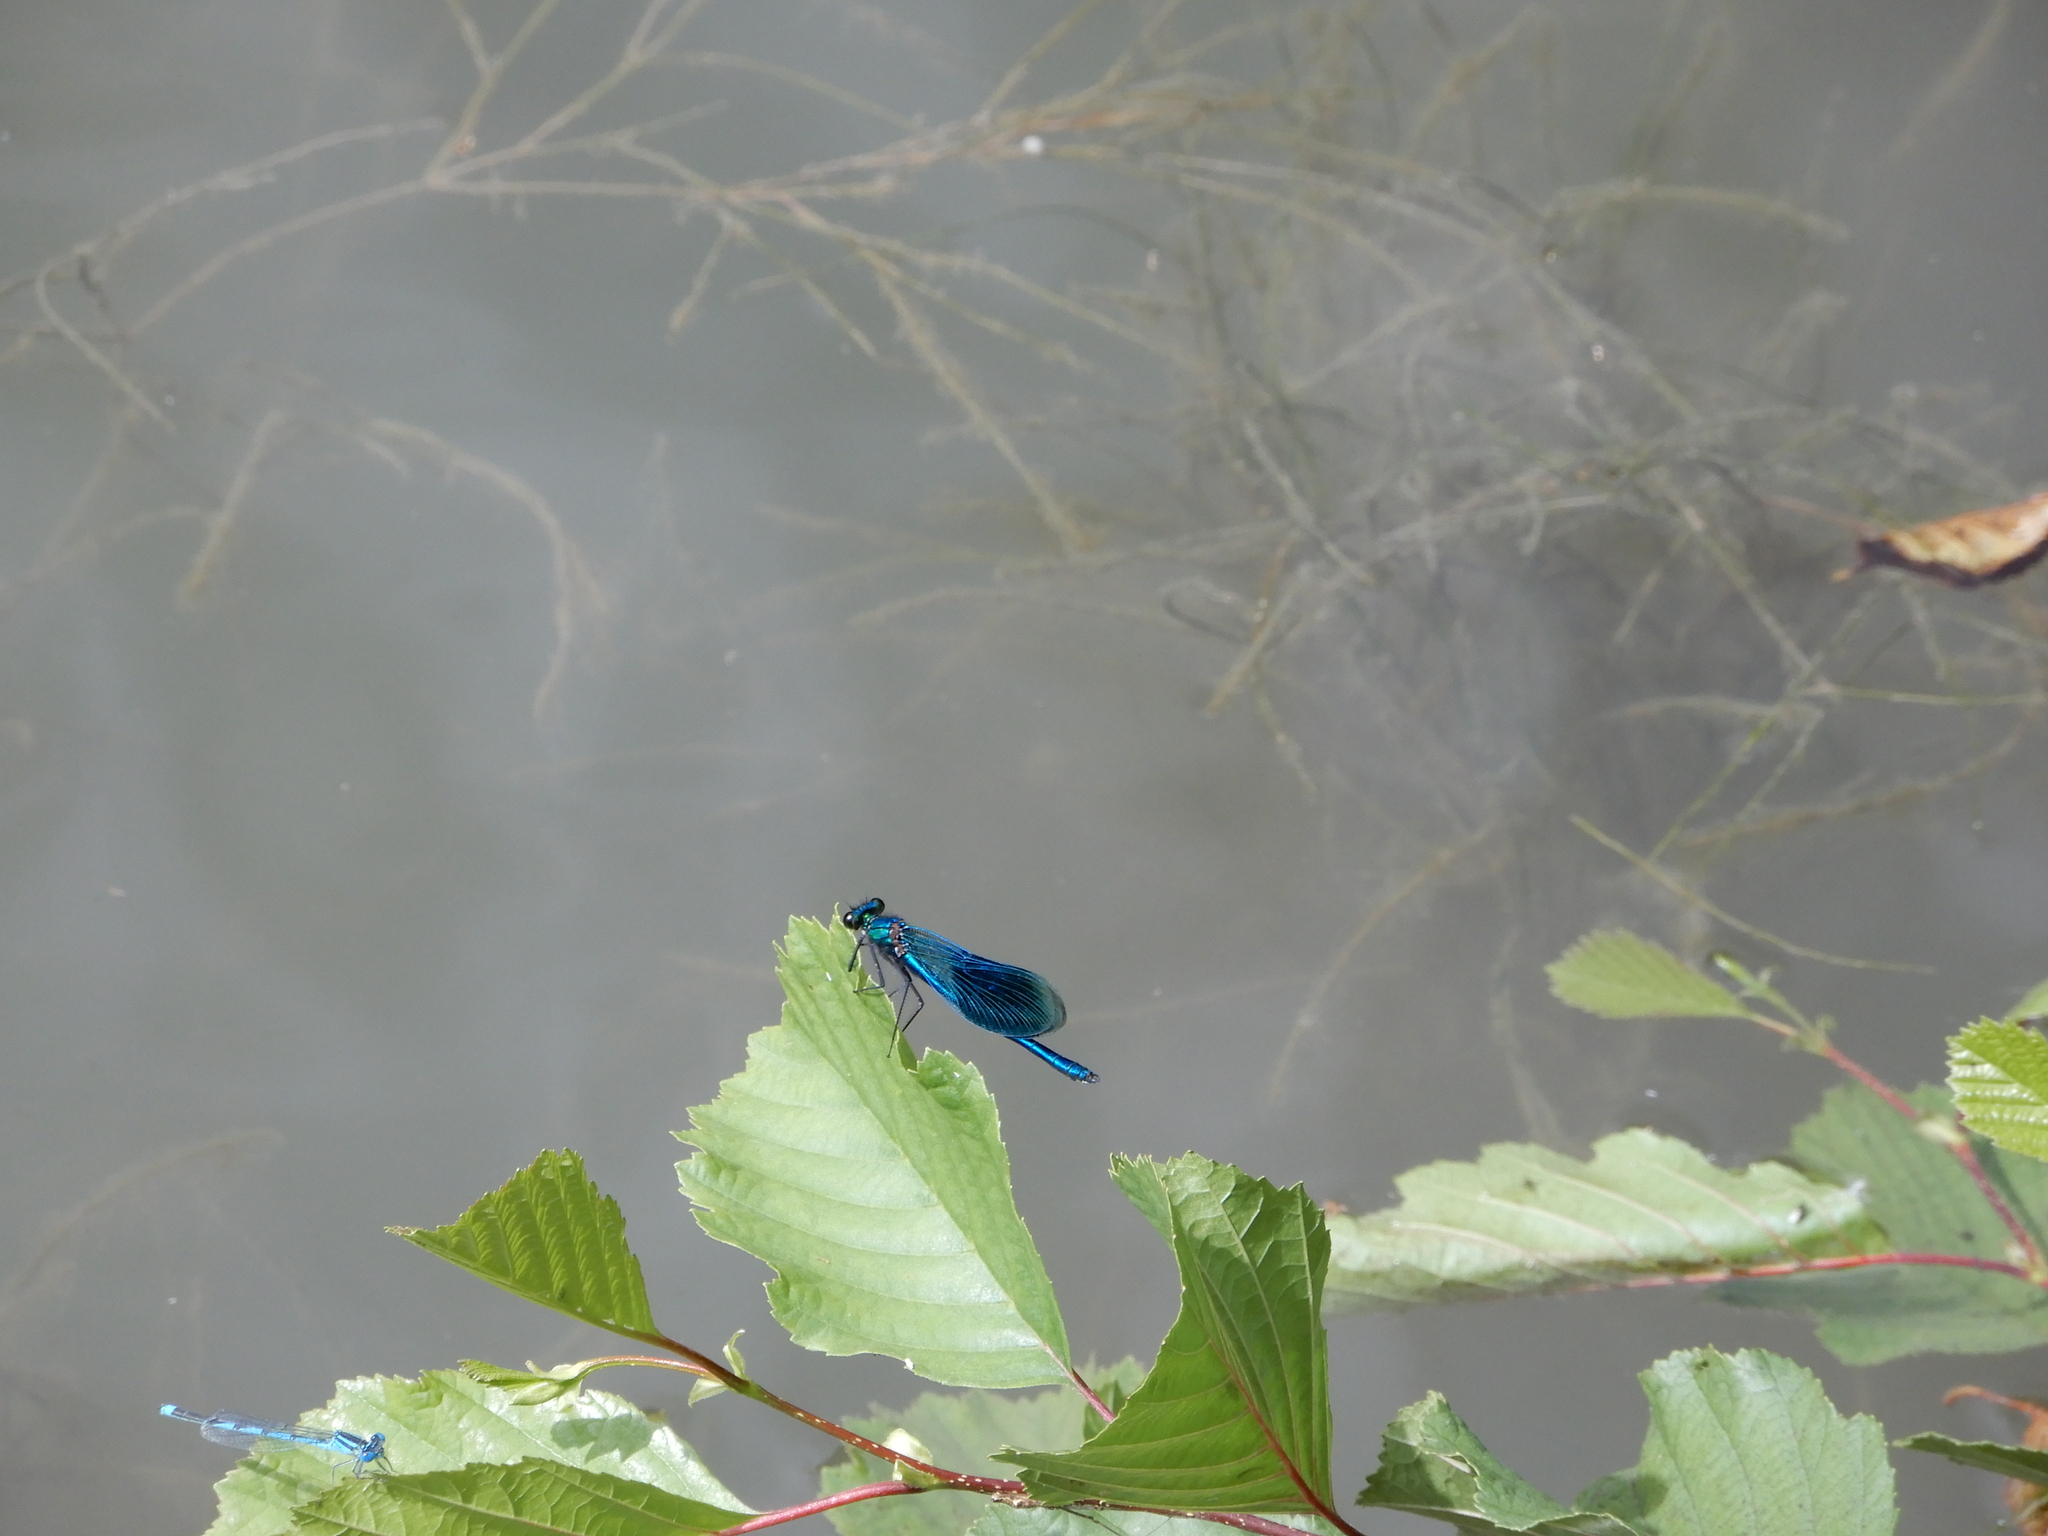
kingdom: Animalia
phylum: Arthropoda
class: Insecta
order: Odonata
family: Calopterygidae
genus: Calopteryx
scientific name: Calopteryx splendens
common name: Banded demoiselle
